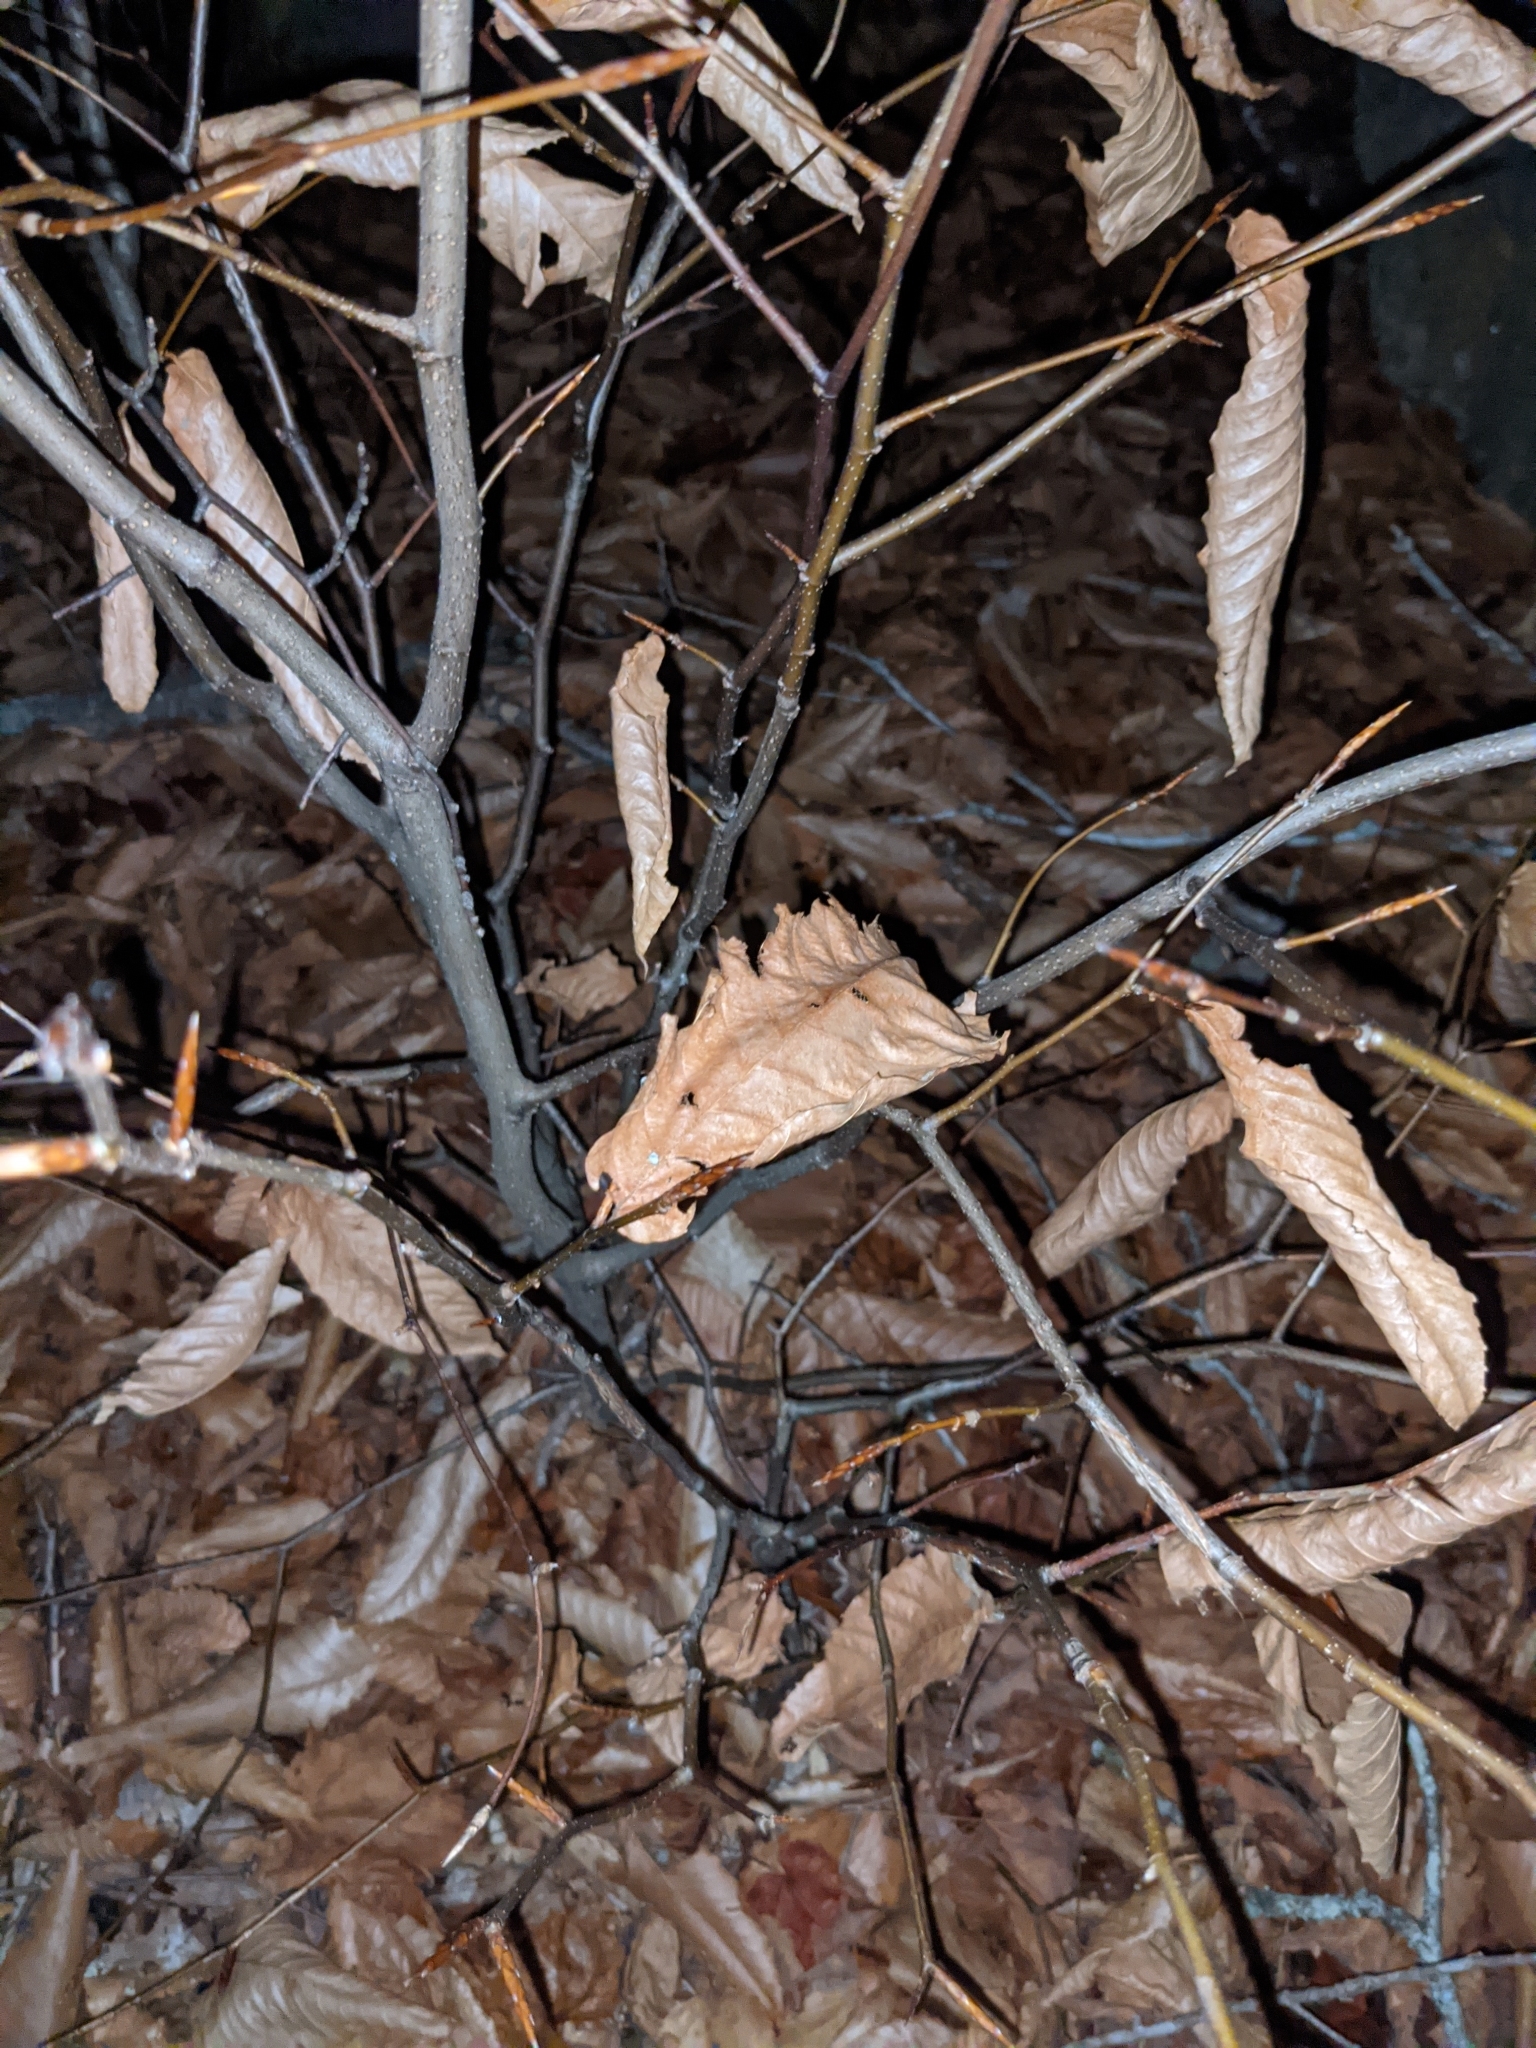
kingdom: Plantae
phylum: Tracheophyta
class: Magnoliopsida
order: Fagales
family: Fagaceae
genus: Fagus
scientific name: Fagus grandifolia
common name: American beech
